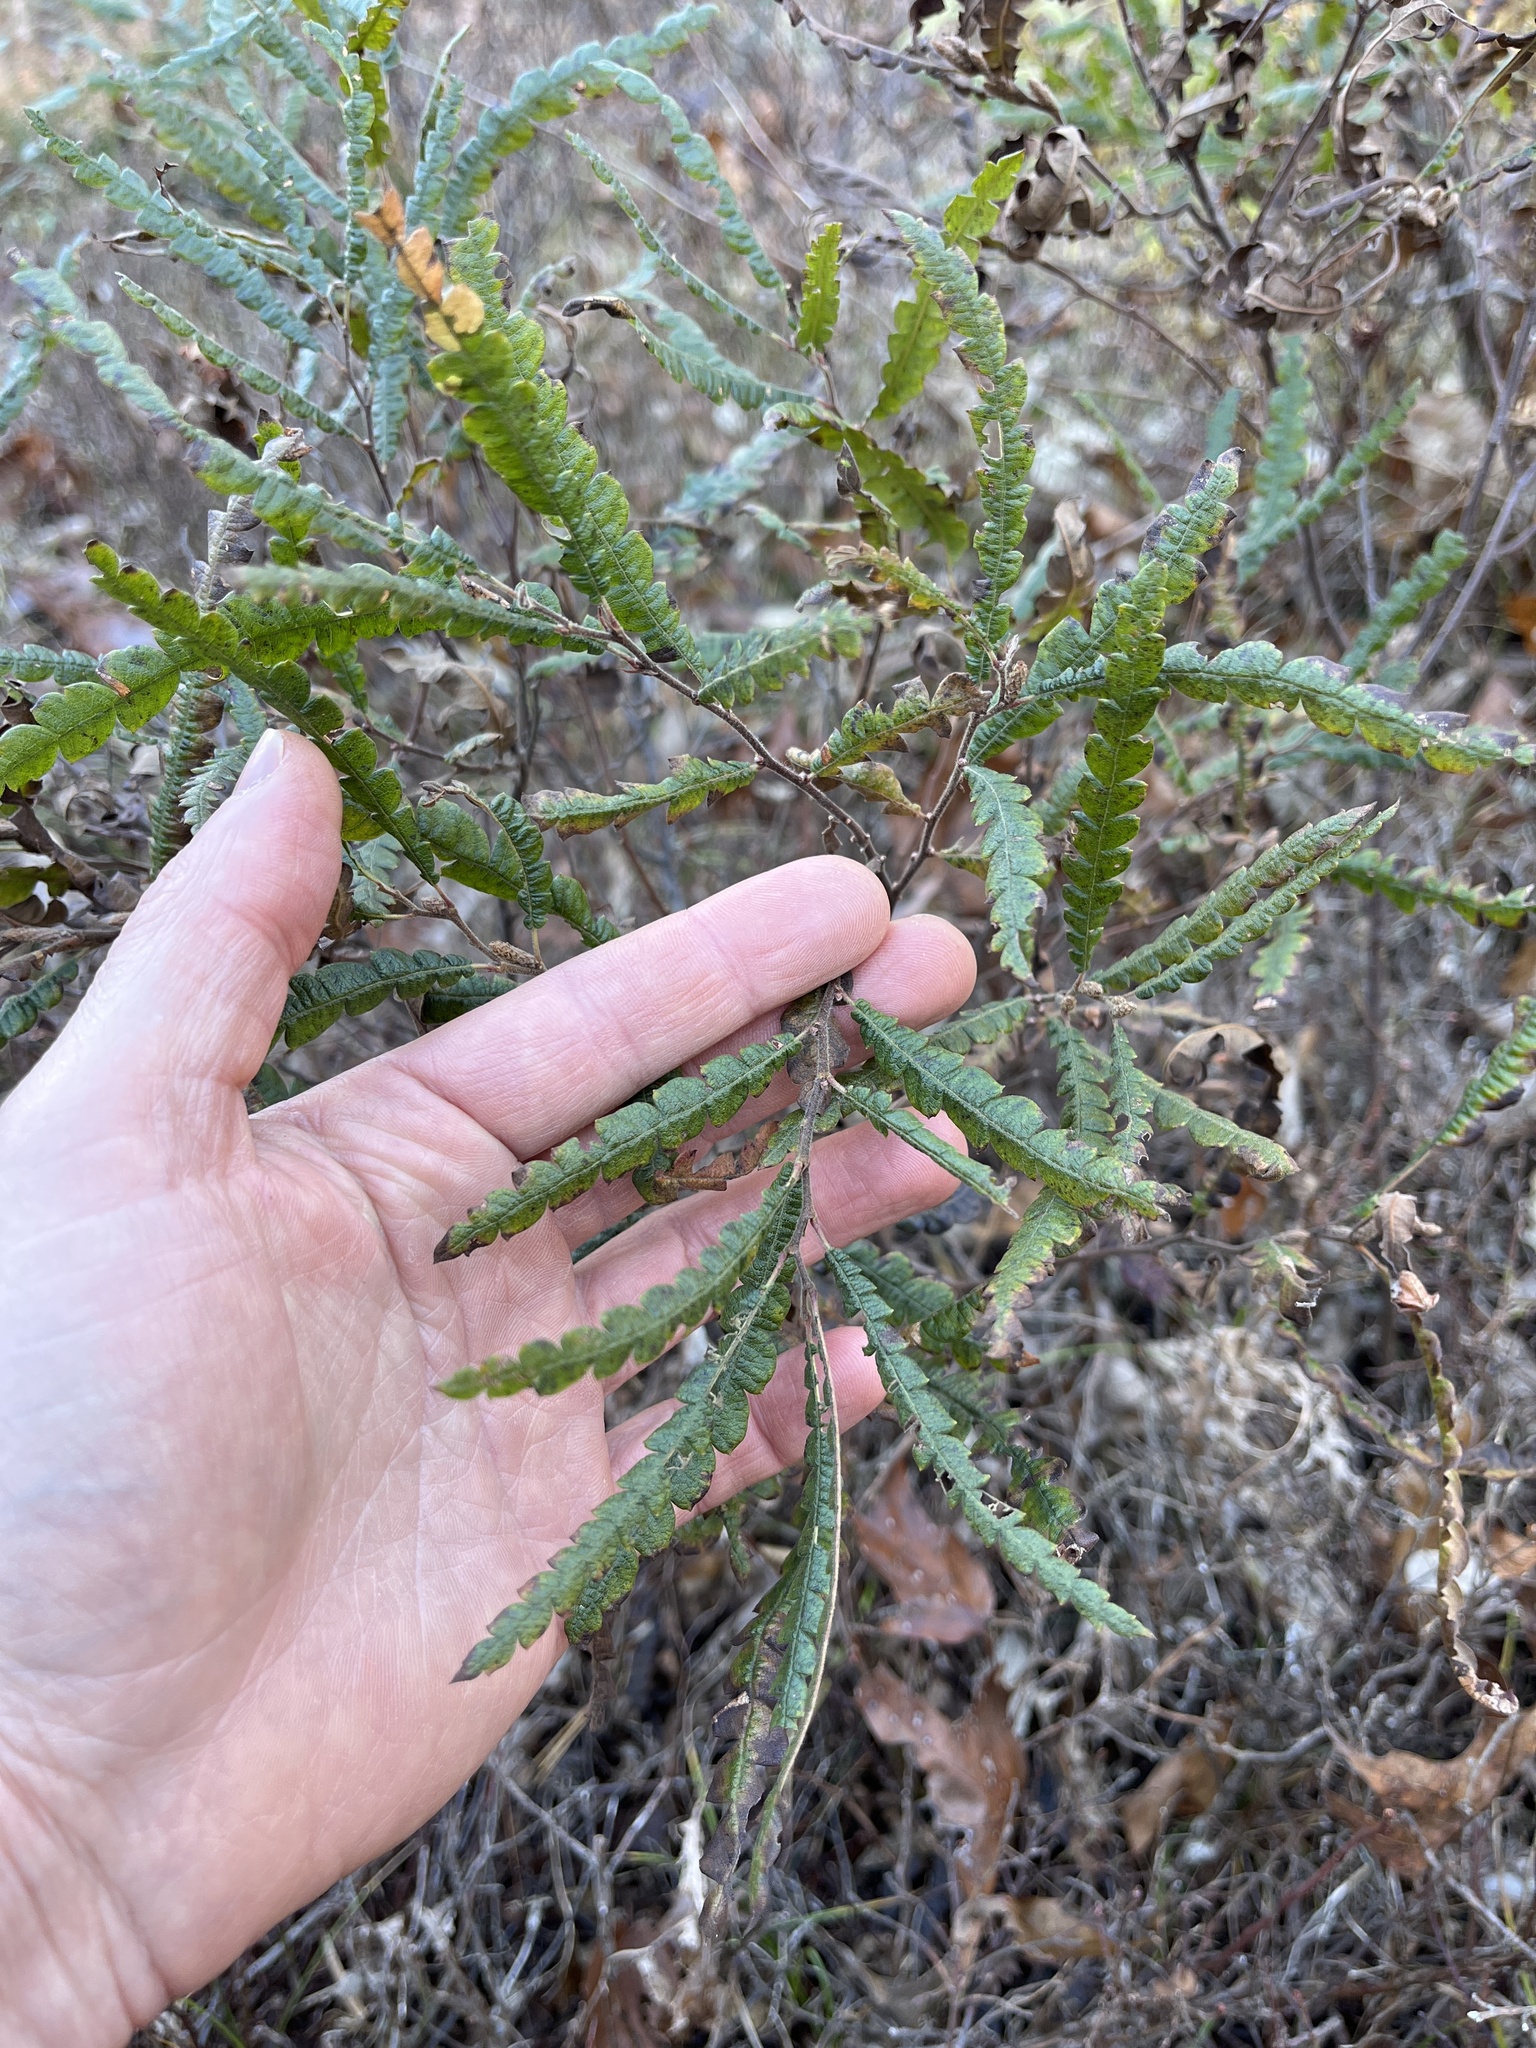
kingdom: Plantae
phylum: Tracheophyta
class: Magnoliopsida
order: Fagales
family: Myricaceae
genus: Comptonia
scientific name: Comptonia peregrina
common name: Sweet-fern
